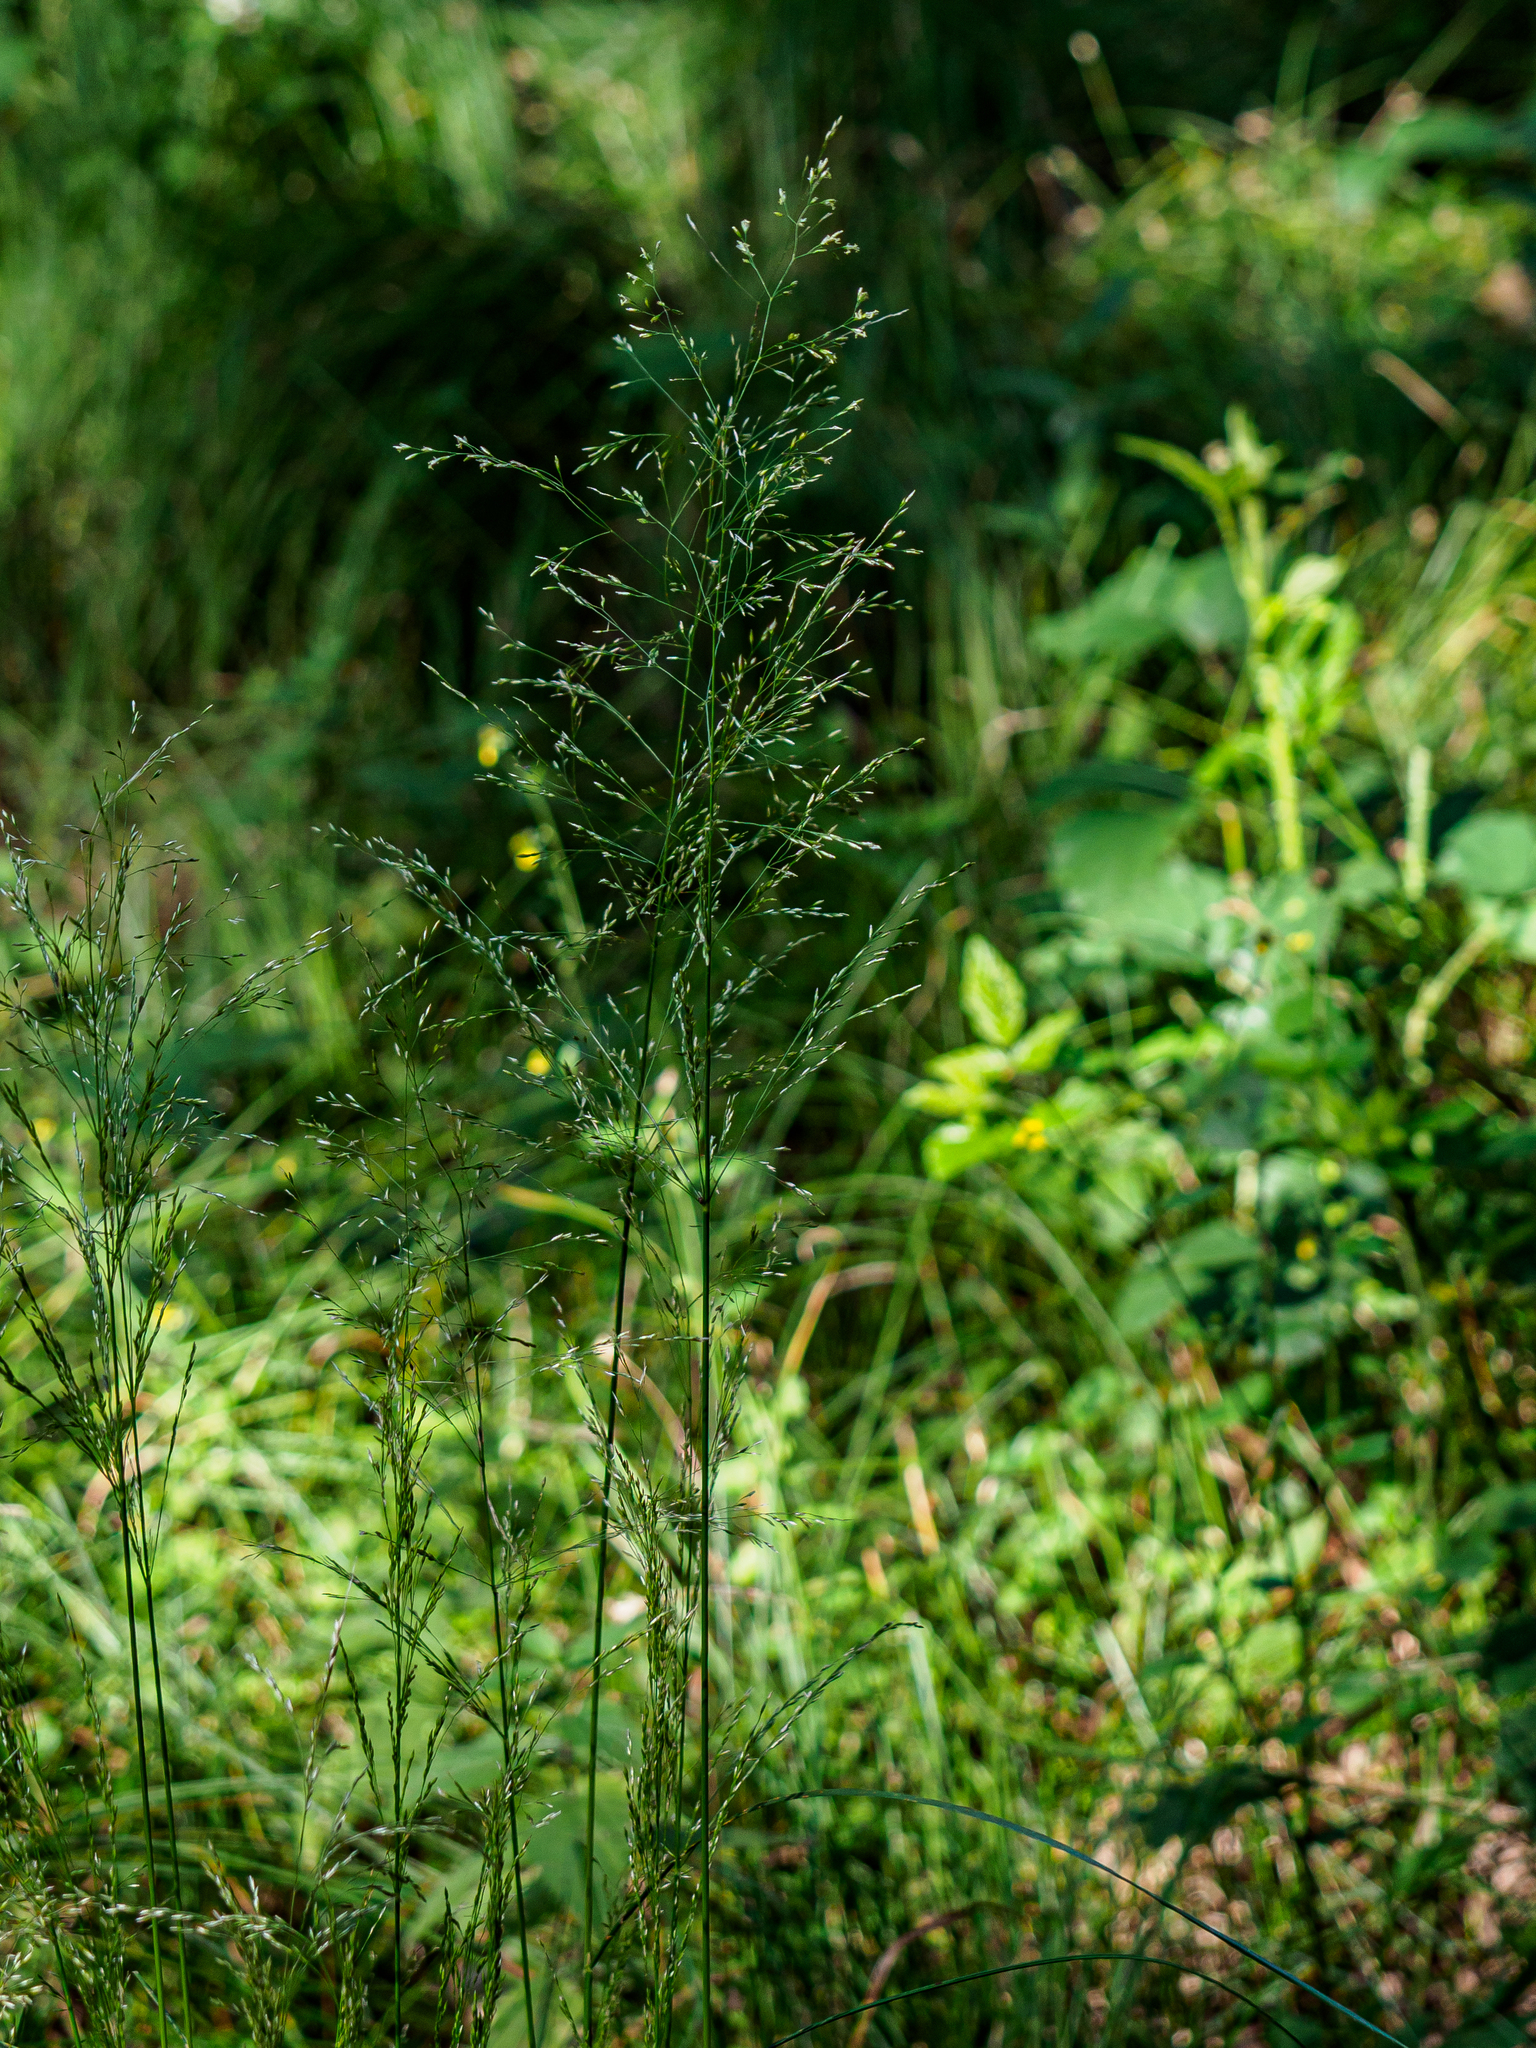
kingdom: Plantae
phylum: Tracheophyta
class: Liliopsida
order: Poales
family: Poaceae
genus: Deschampsia
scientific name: Deschampsia cespitosa
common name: Tufted hair-grass
